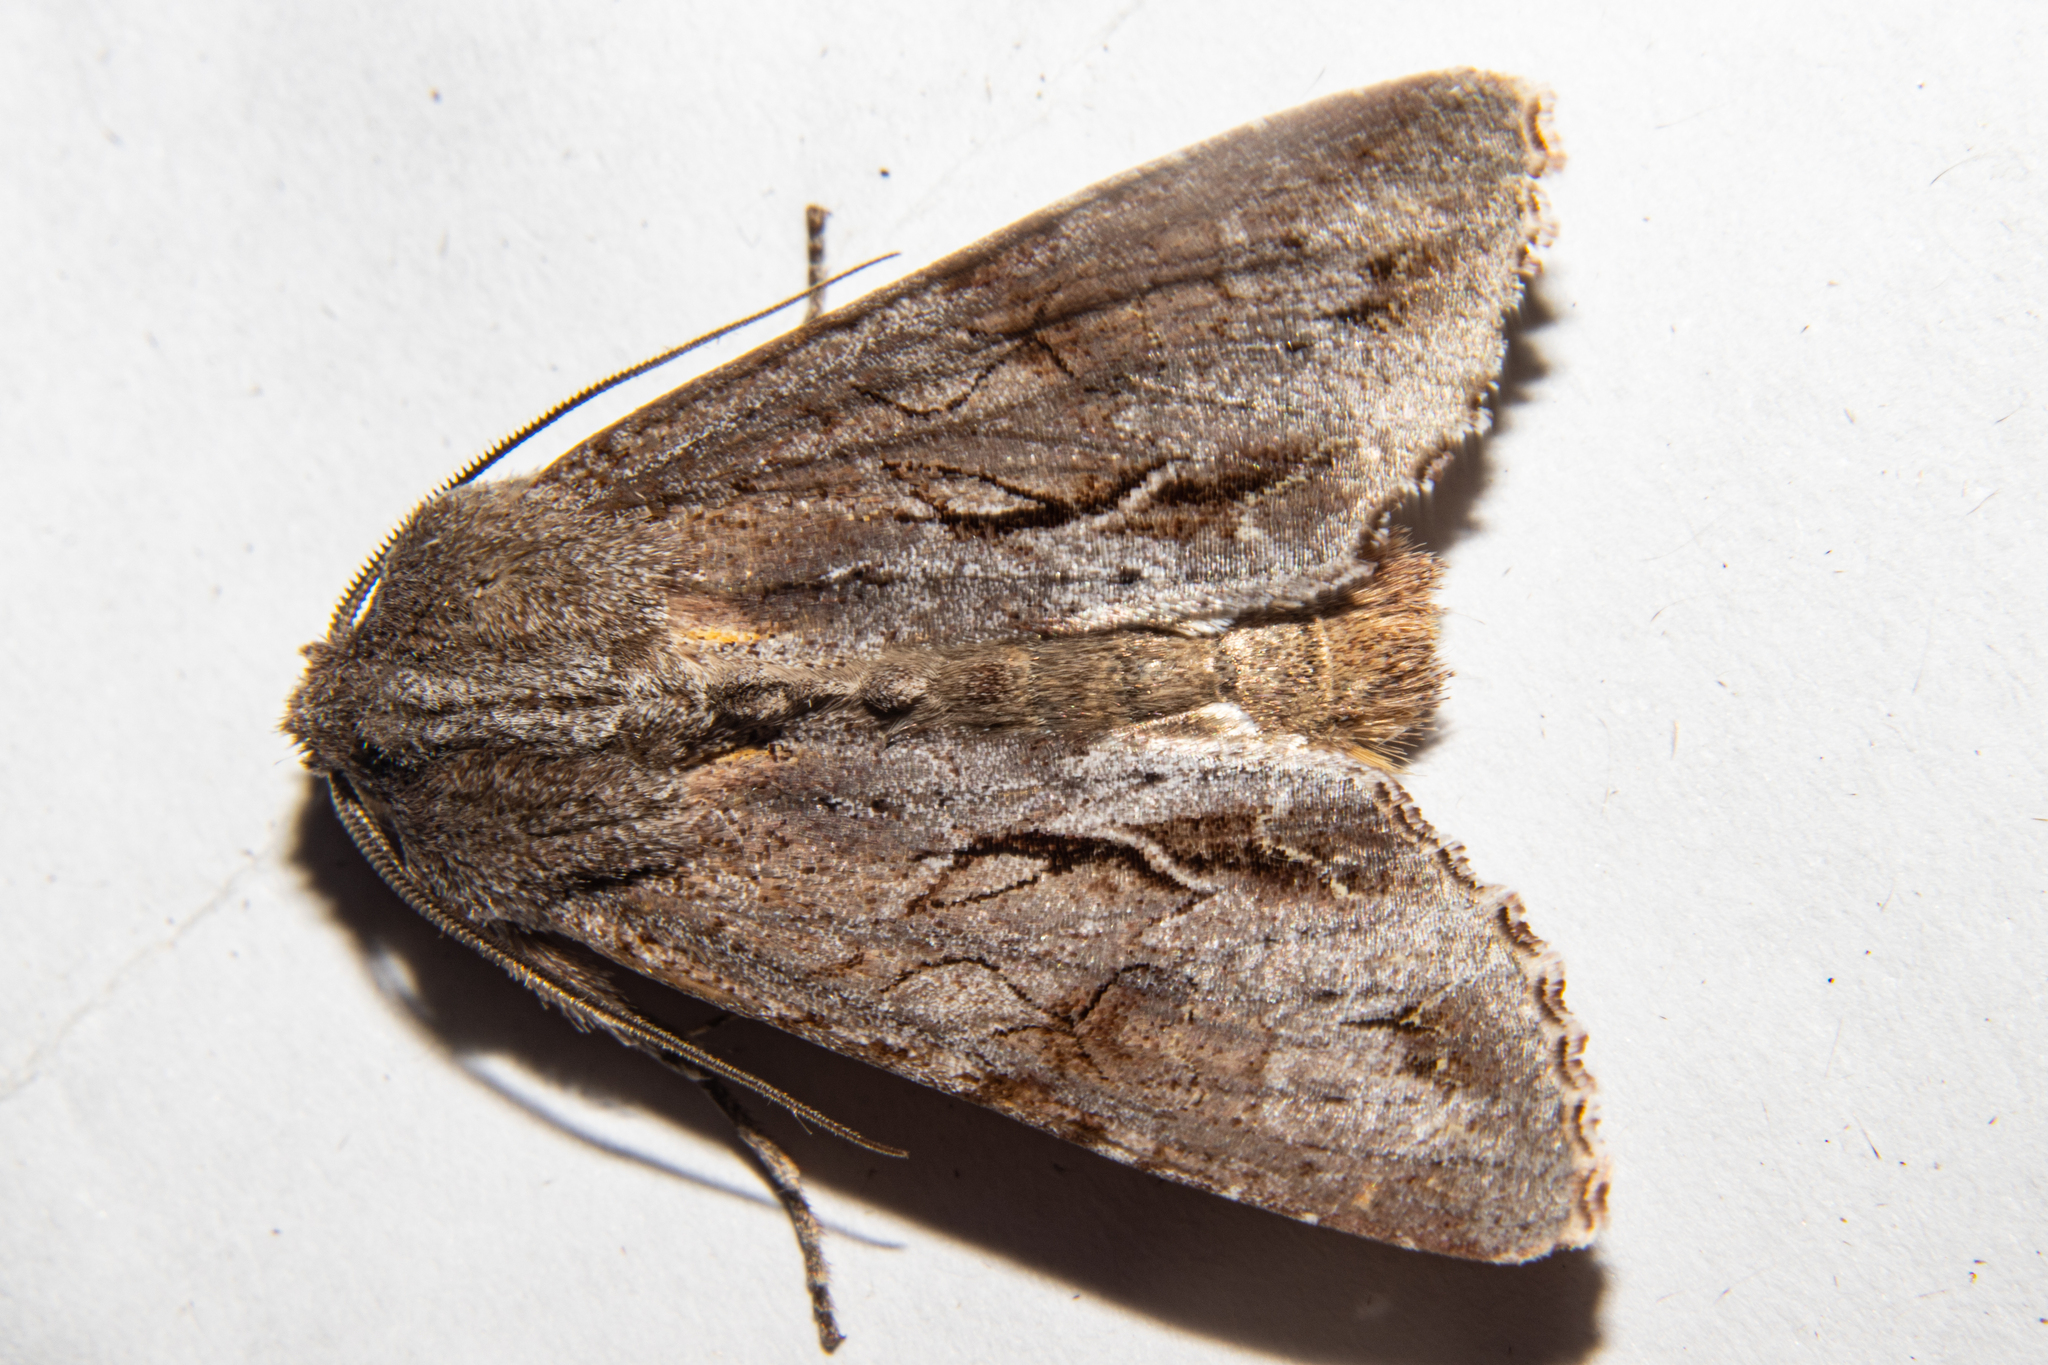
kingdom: Animalia
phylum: Arthropoda
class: Insecta
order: Lepidoptera
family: Noctuidae
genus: Ichneutica
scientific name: Ichneutica
